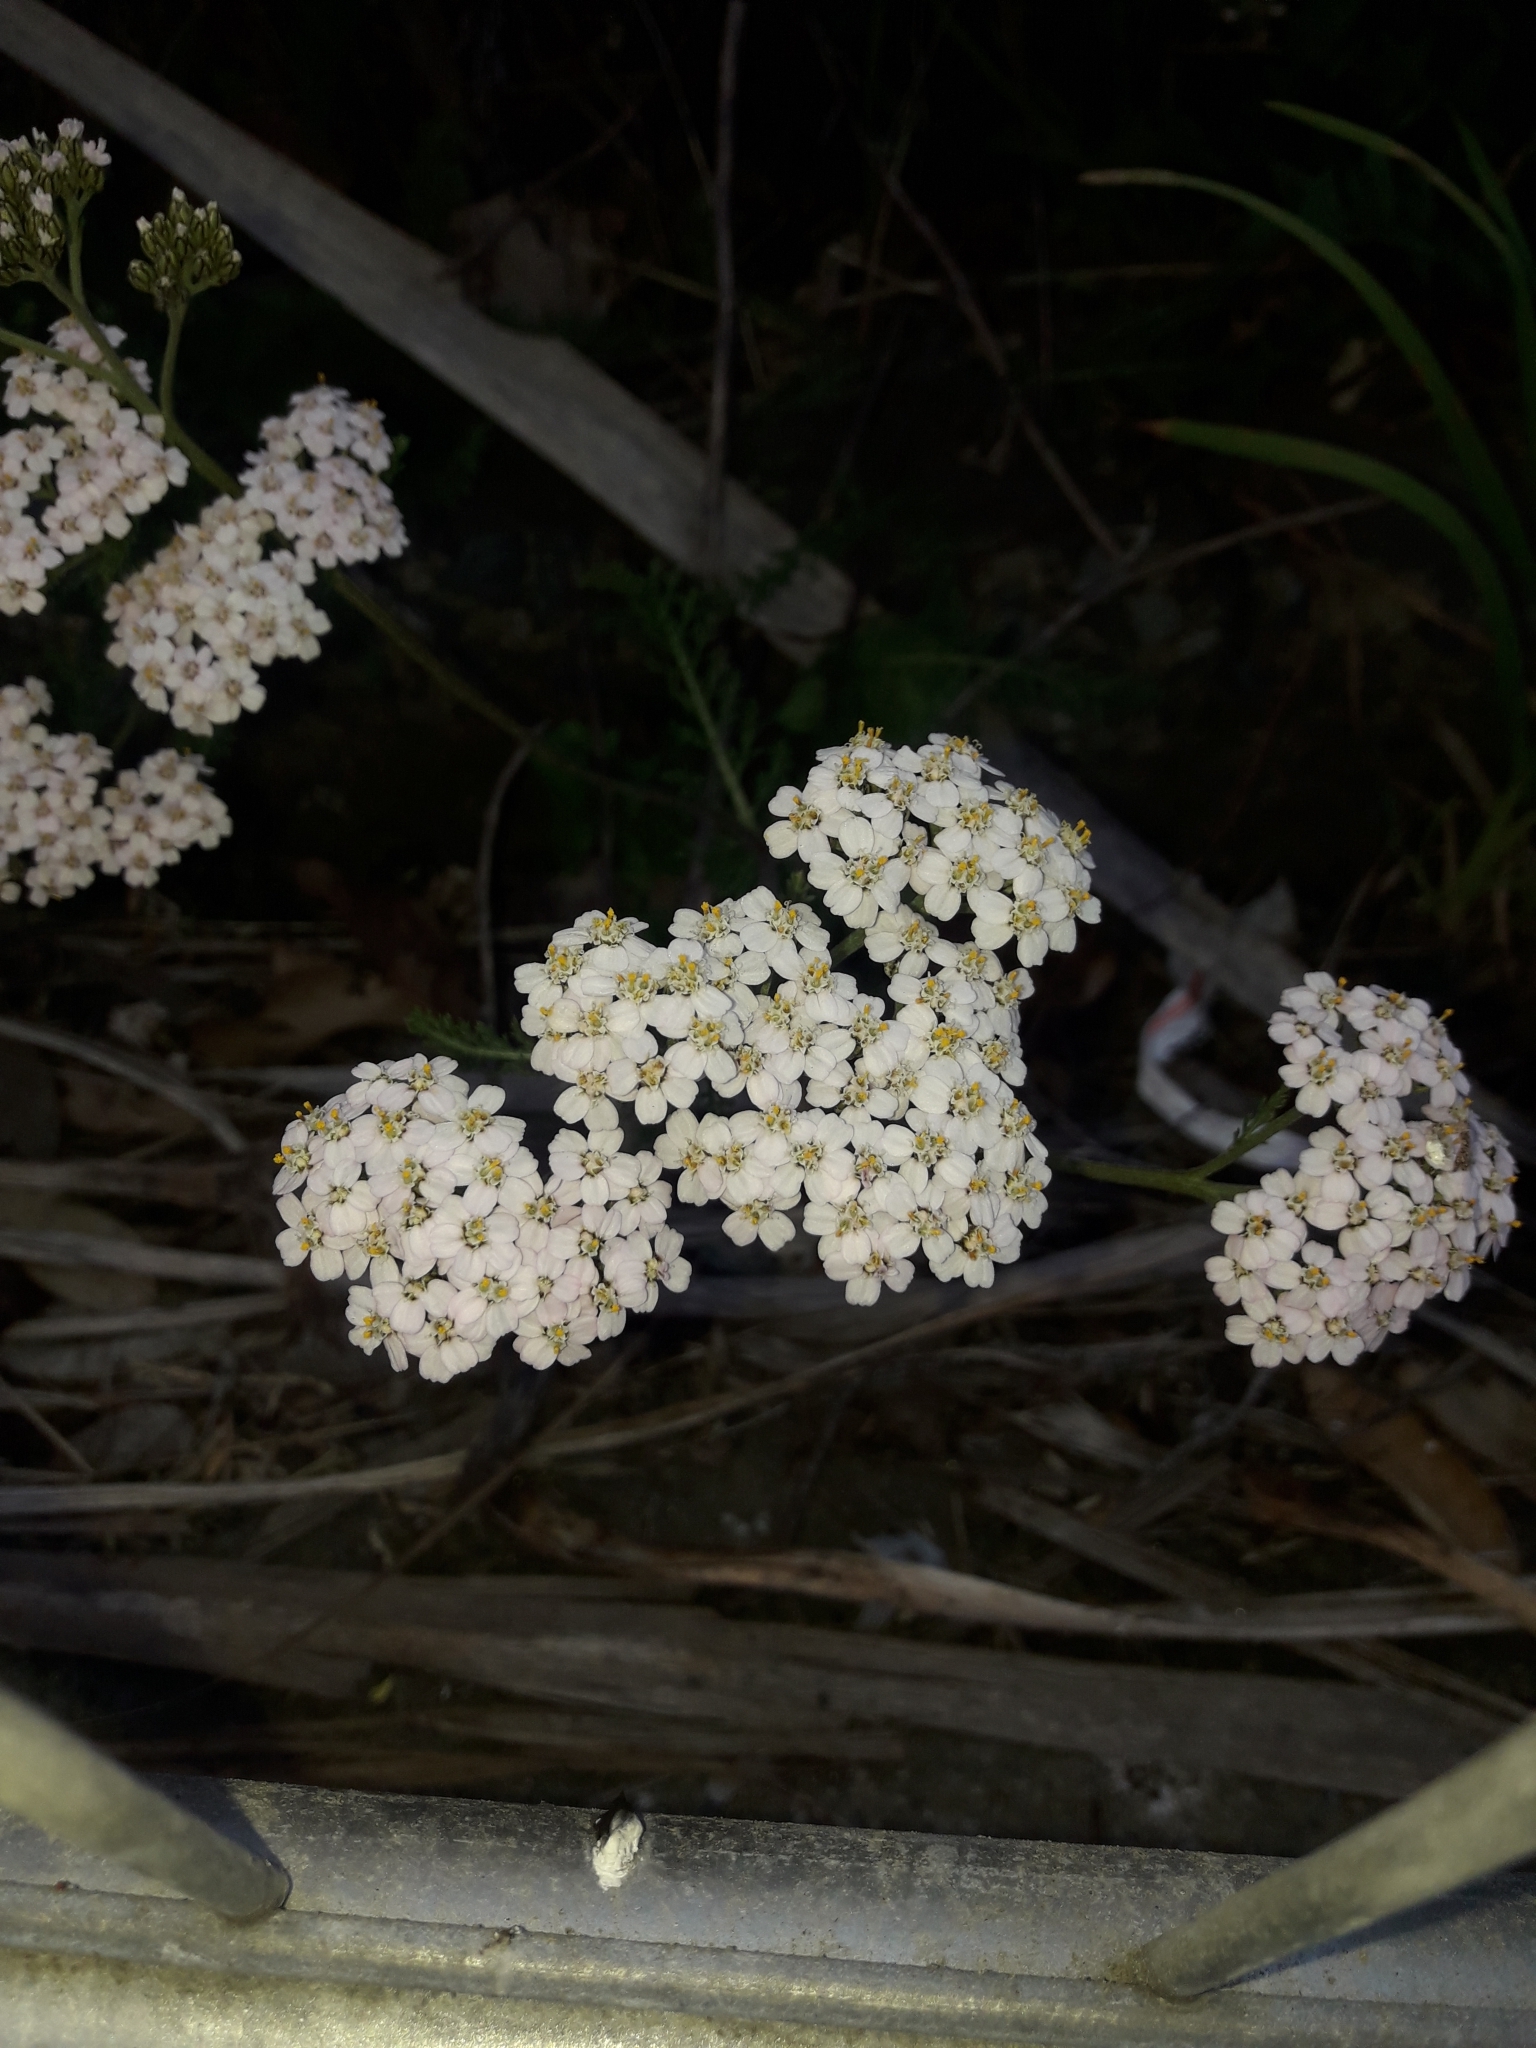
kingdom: Plantae
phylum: Tracheophyta
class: Magnoliopsida
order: Asterales
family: Asteraceae
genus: Achillea
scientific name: Achillea millefolium
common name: Yarrow
